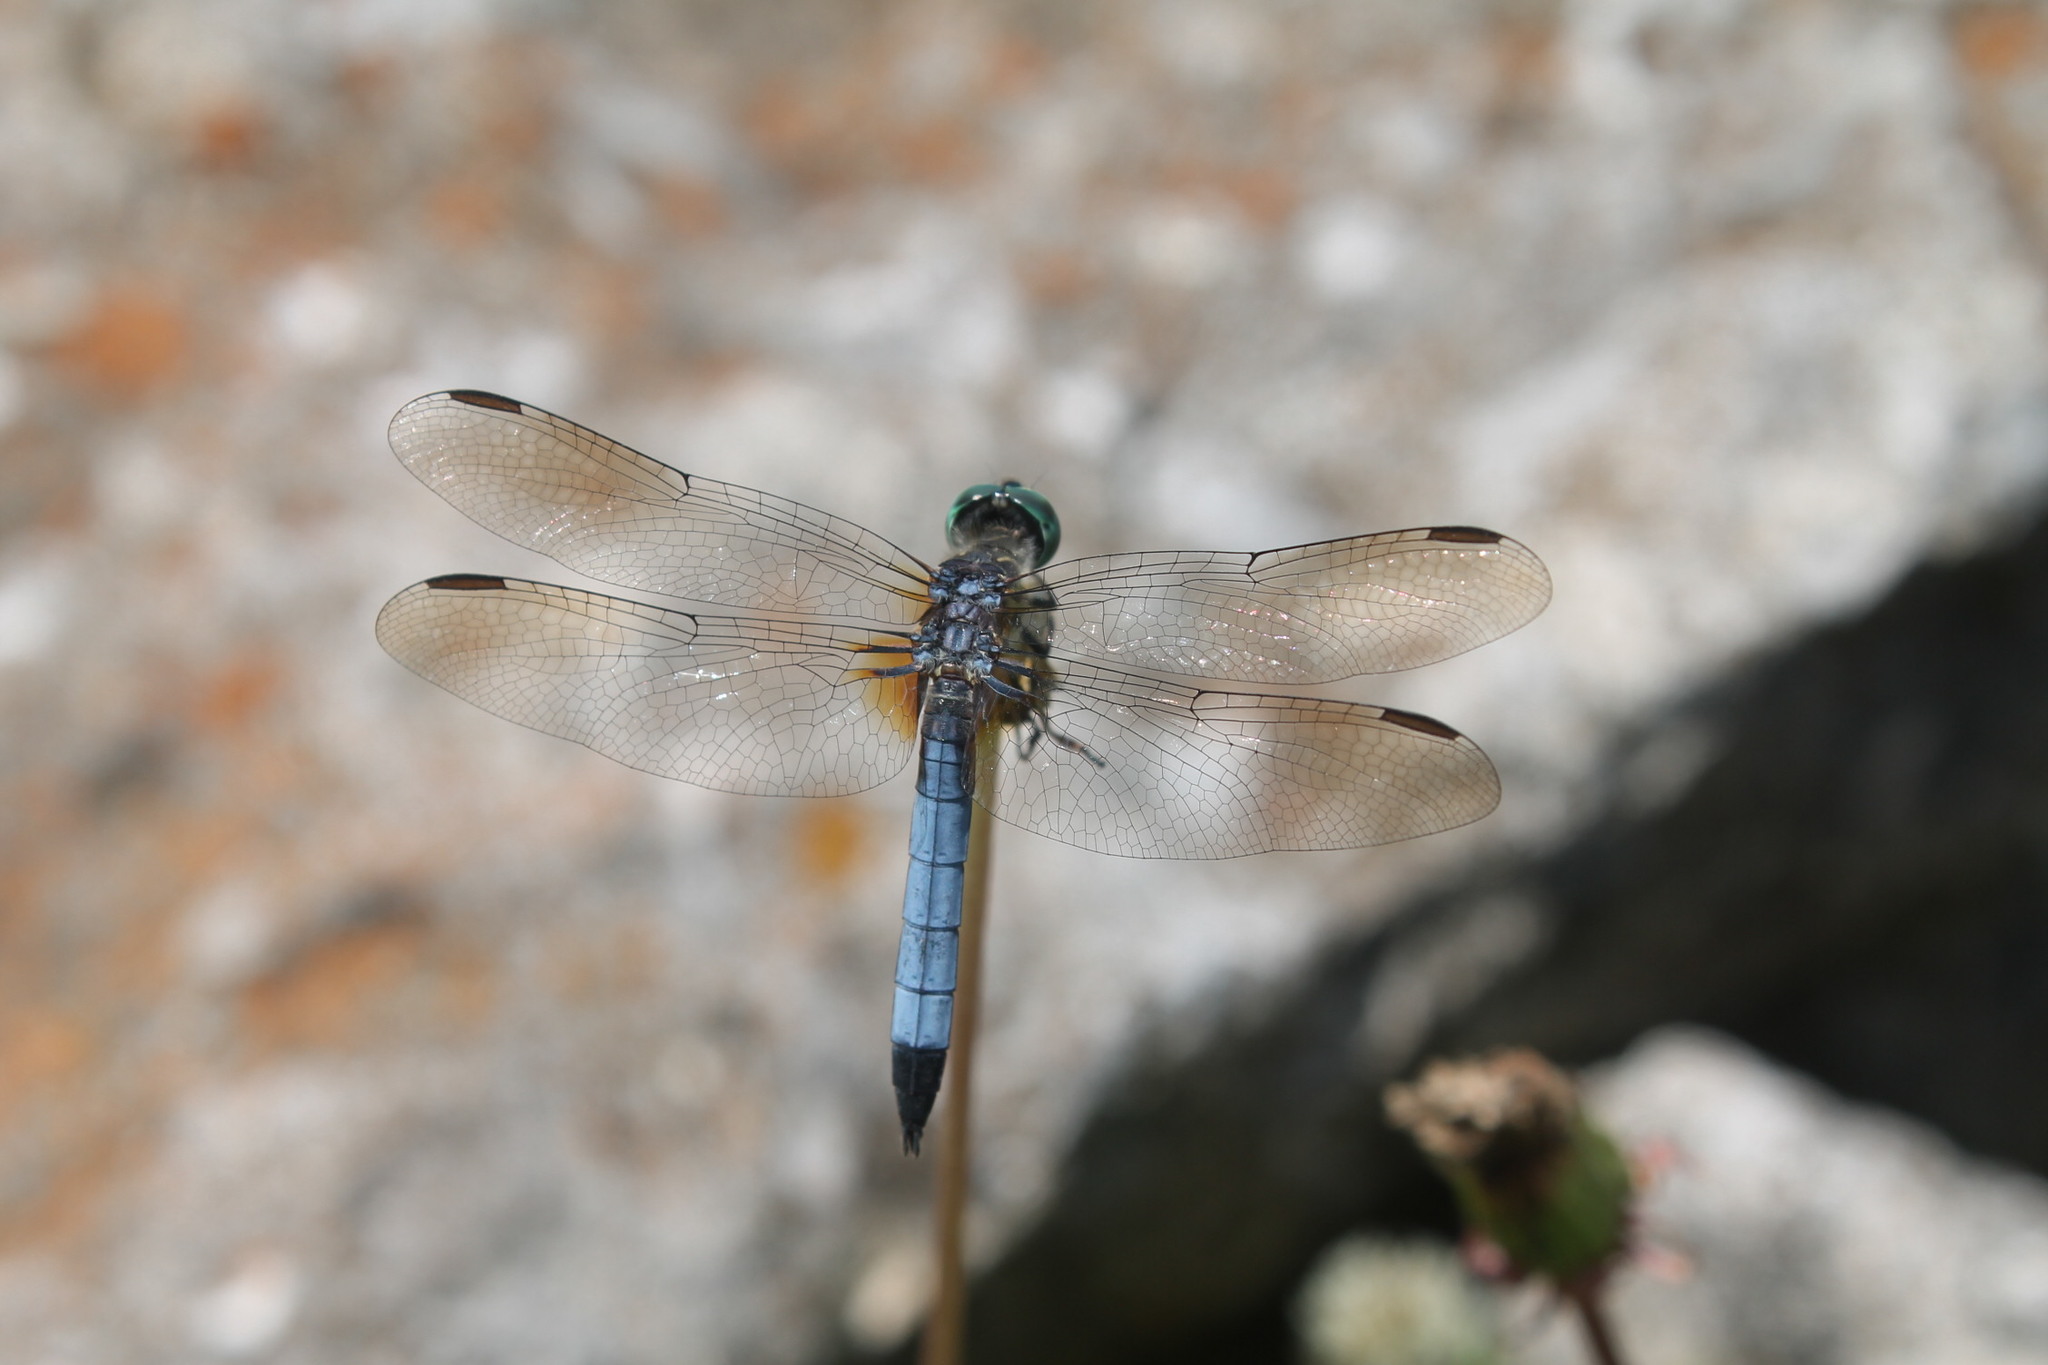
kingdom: Animalia
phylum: Arthropoda
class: Insecta
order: Odonata
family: Libellulidae
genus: Pachydiplax
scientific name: Pachydiplax longipennis
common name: Blue dasher
